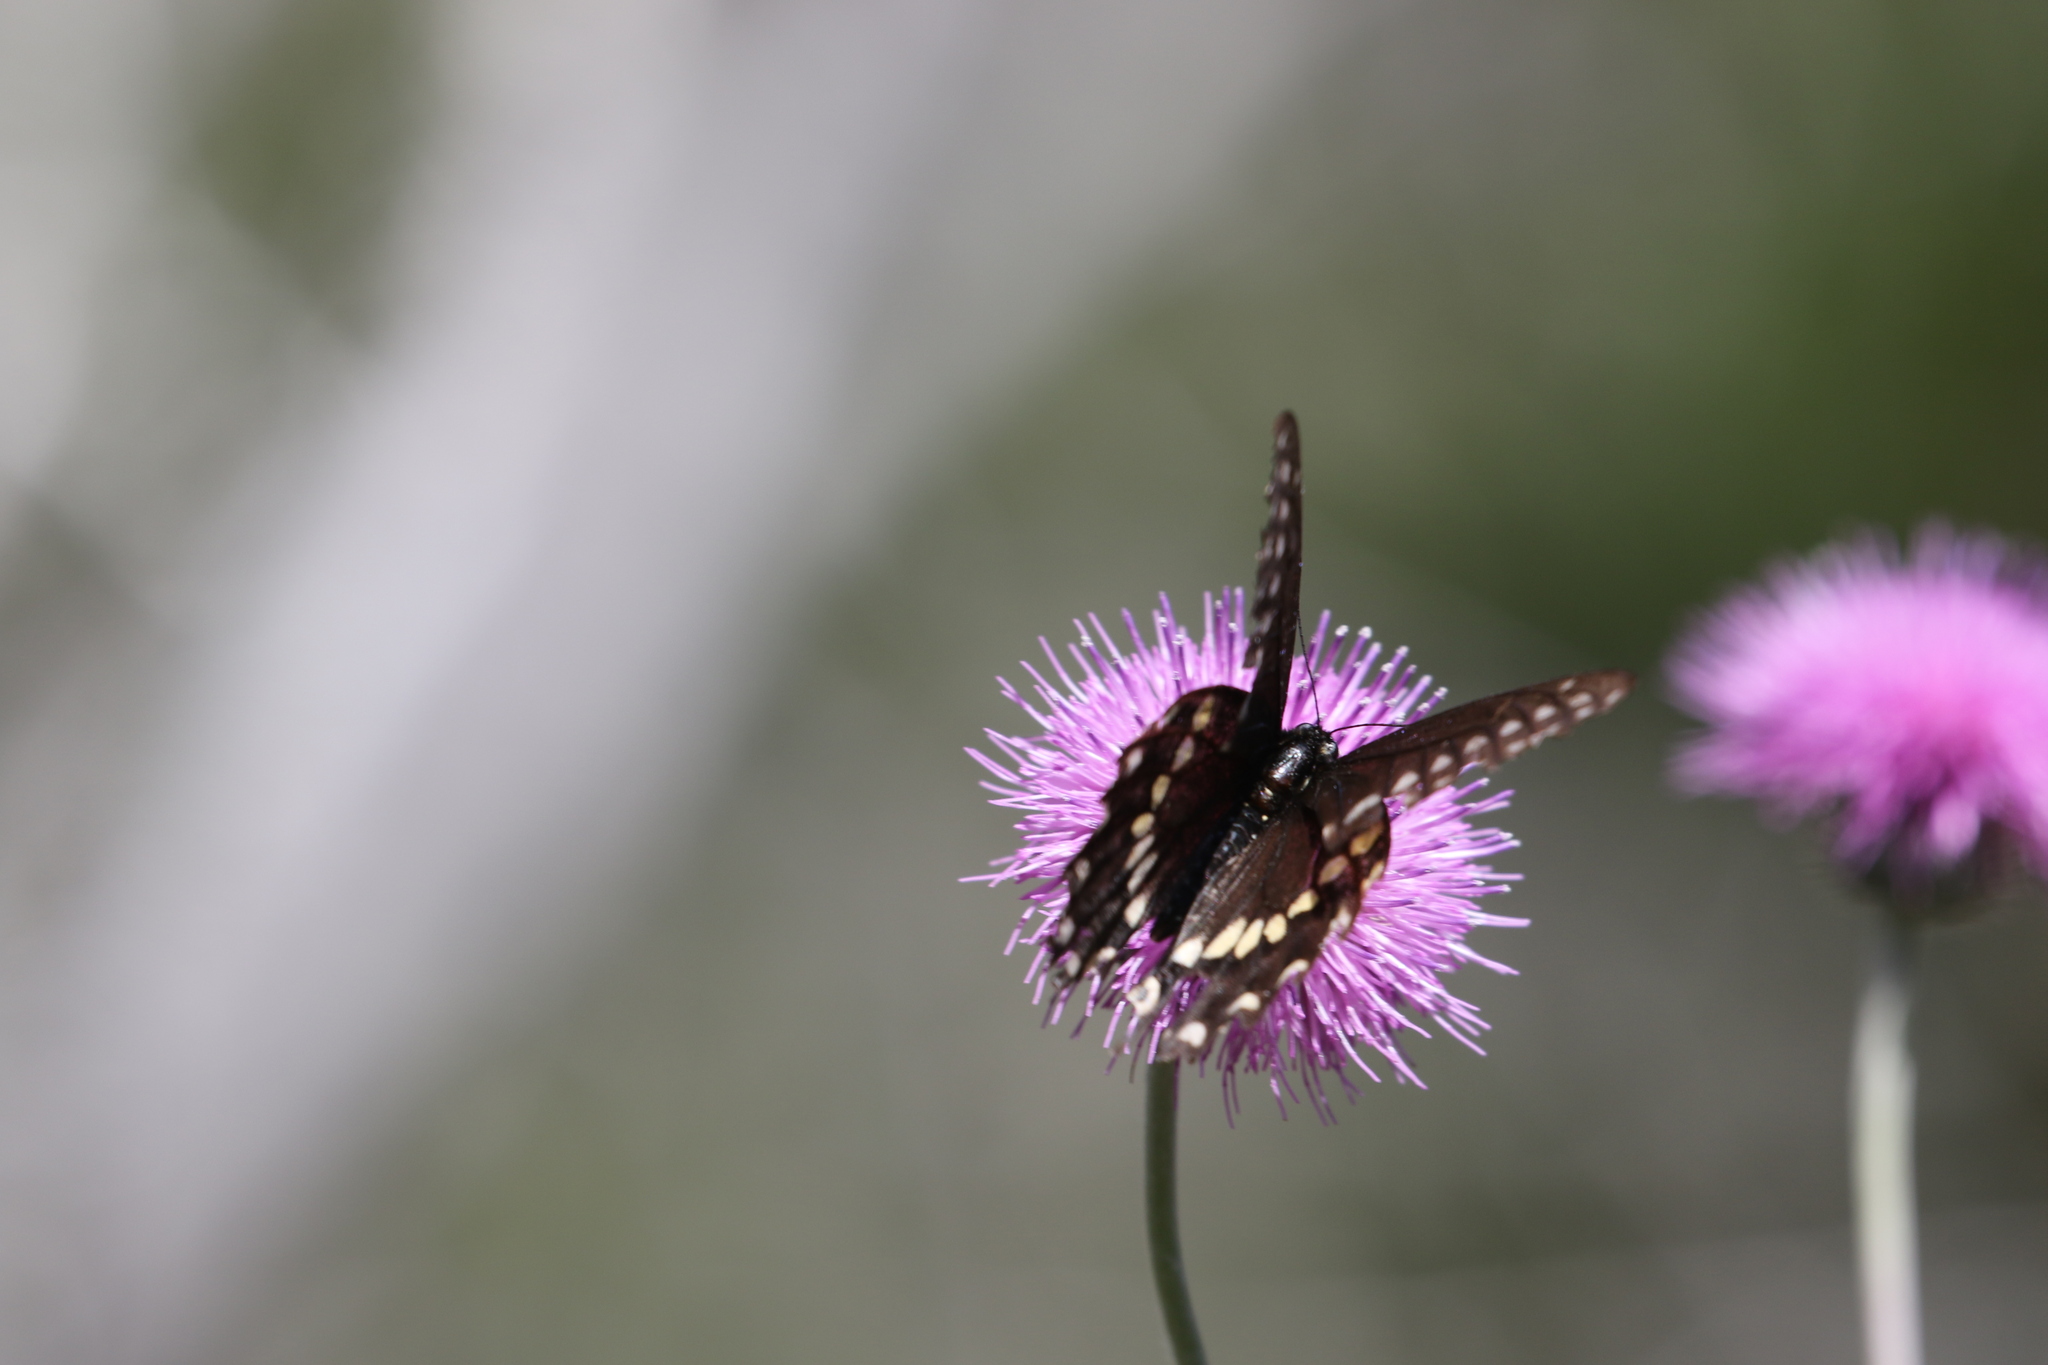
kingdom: Animalia
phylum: Arthropoda
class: Insecta
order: Lepidoptera
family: Papilionidae
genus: Papilio
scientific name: Papilio polyxenes
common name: Black swallowtail
